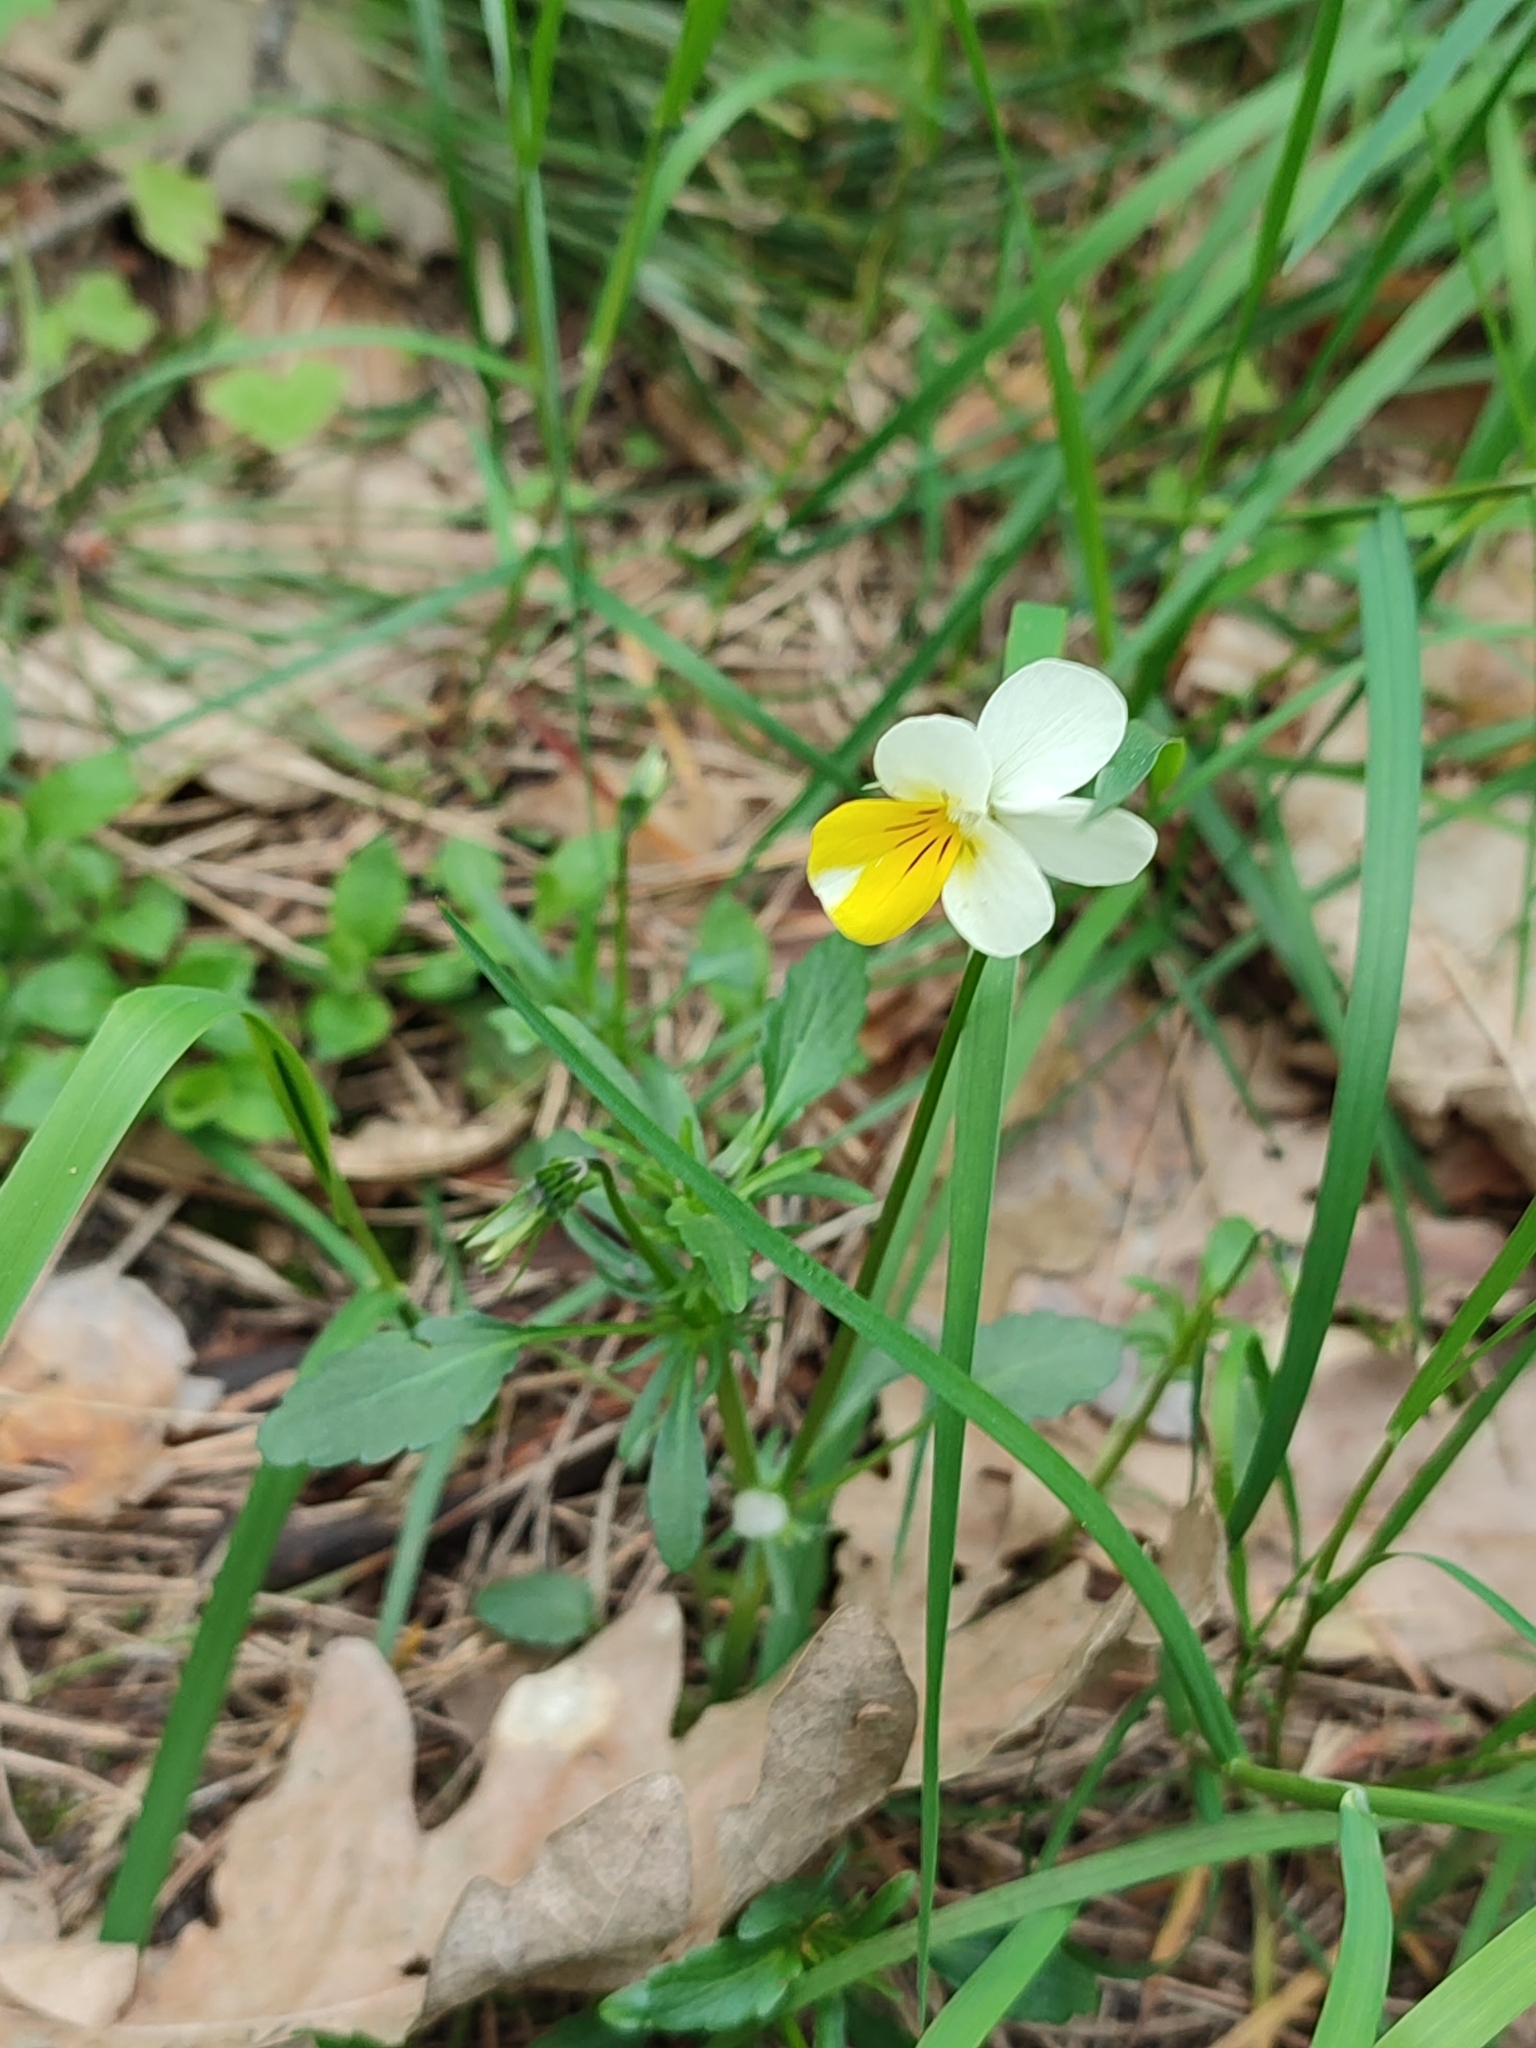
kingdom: Plantae
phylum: Tracheophyta
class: Magnoliopsida
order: Malpighiales
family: Violaceae
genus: Viola
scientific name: Viola arvensis
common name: Field pansy
